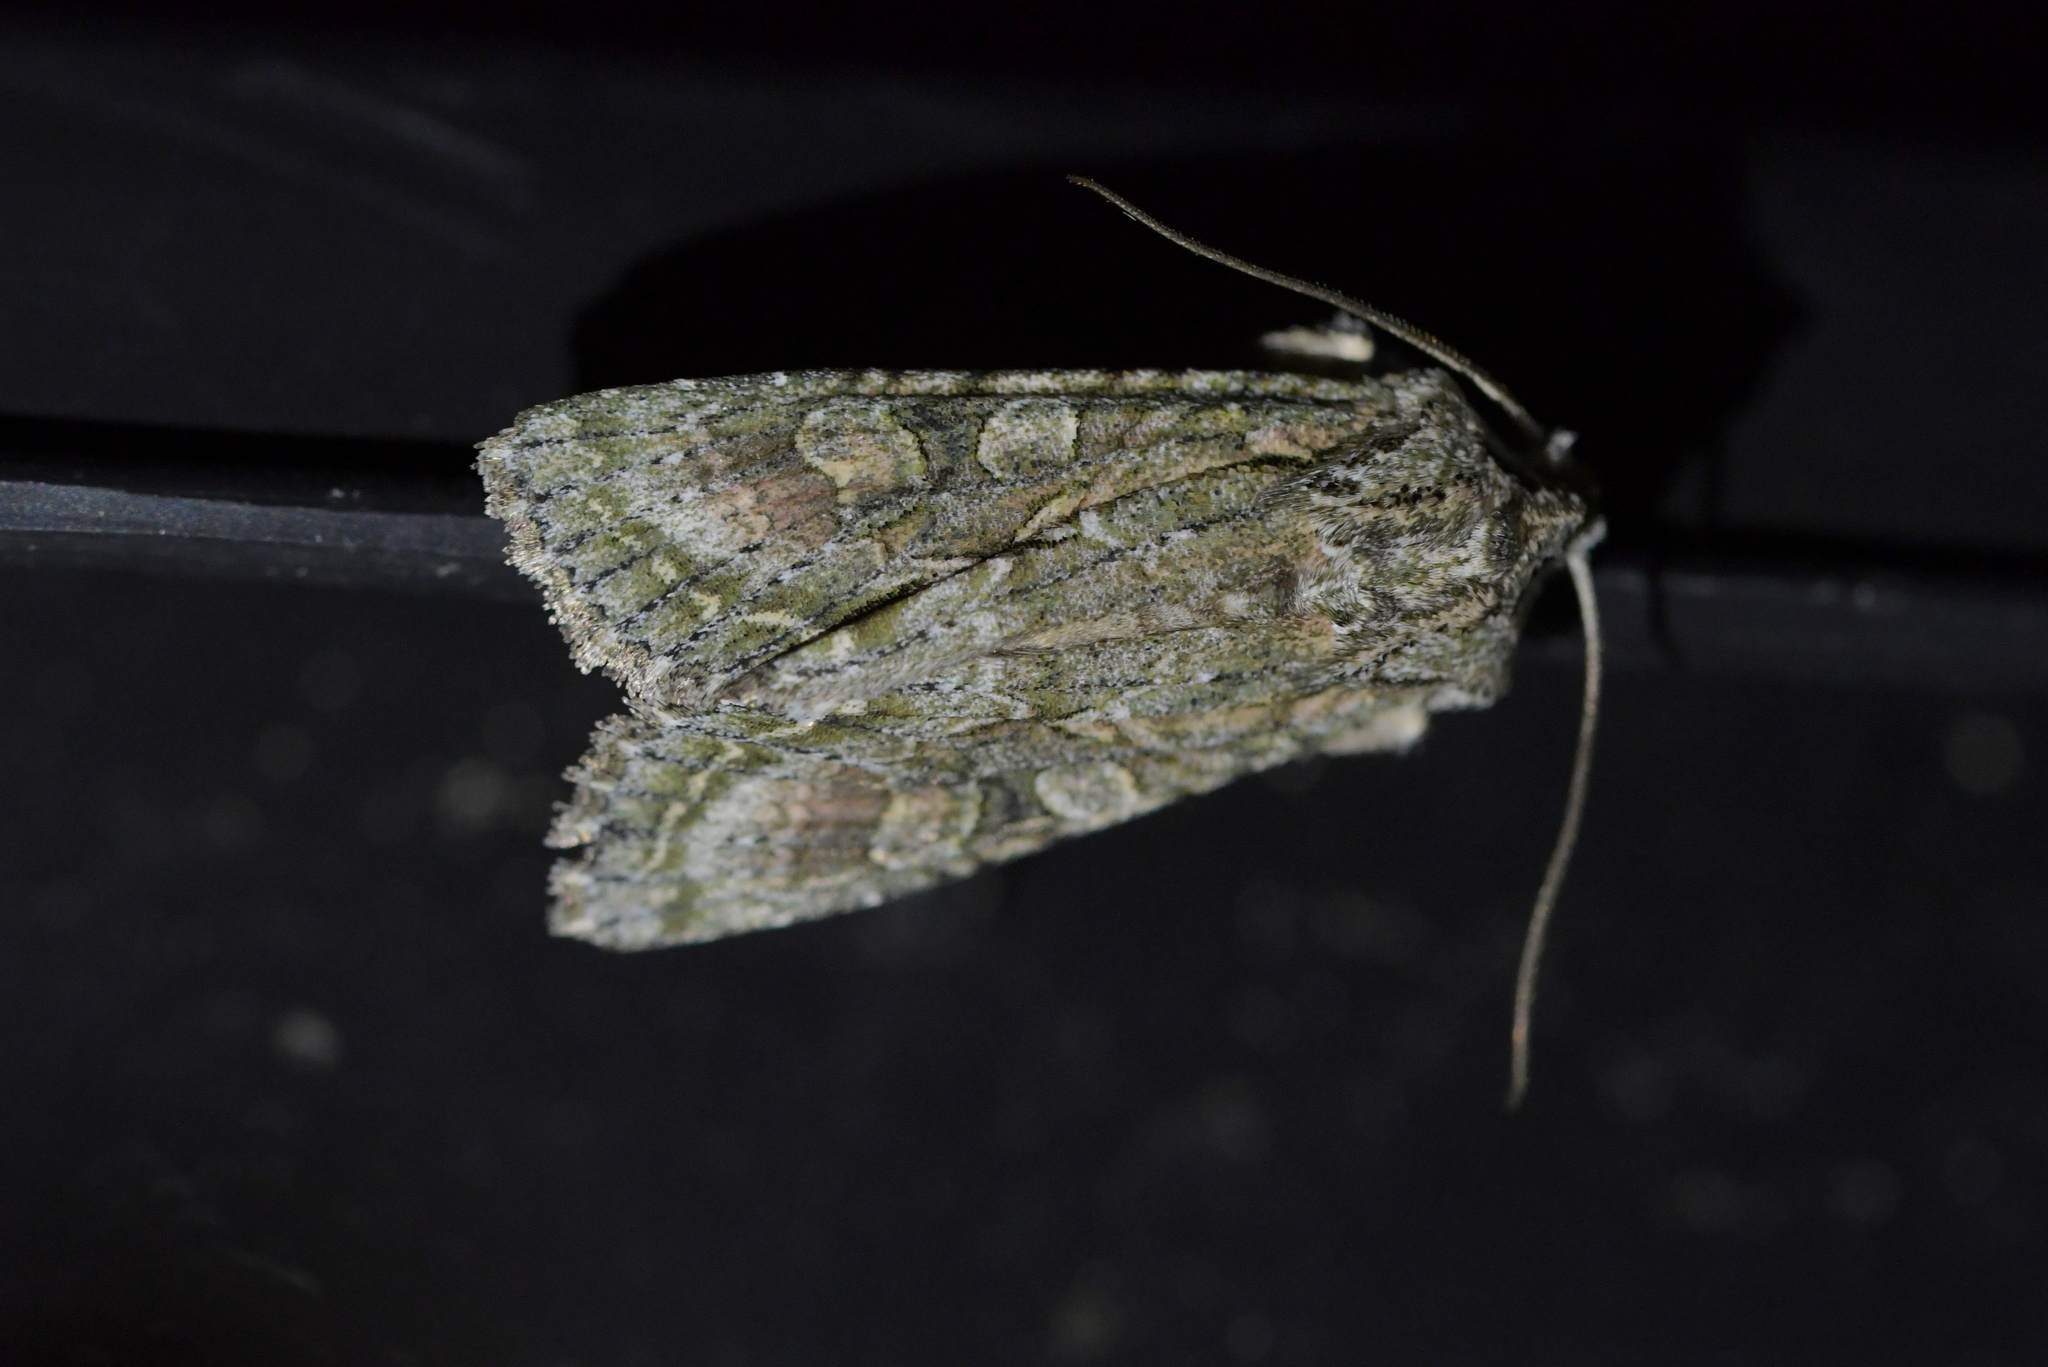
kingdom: Animalia
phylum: Arthropoda
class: Insecta
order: Lepidoptera
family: Noctuidae
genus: Ichneutica
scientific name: Ichneutica mutans
